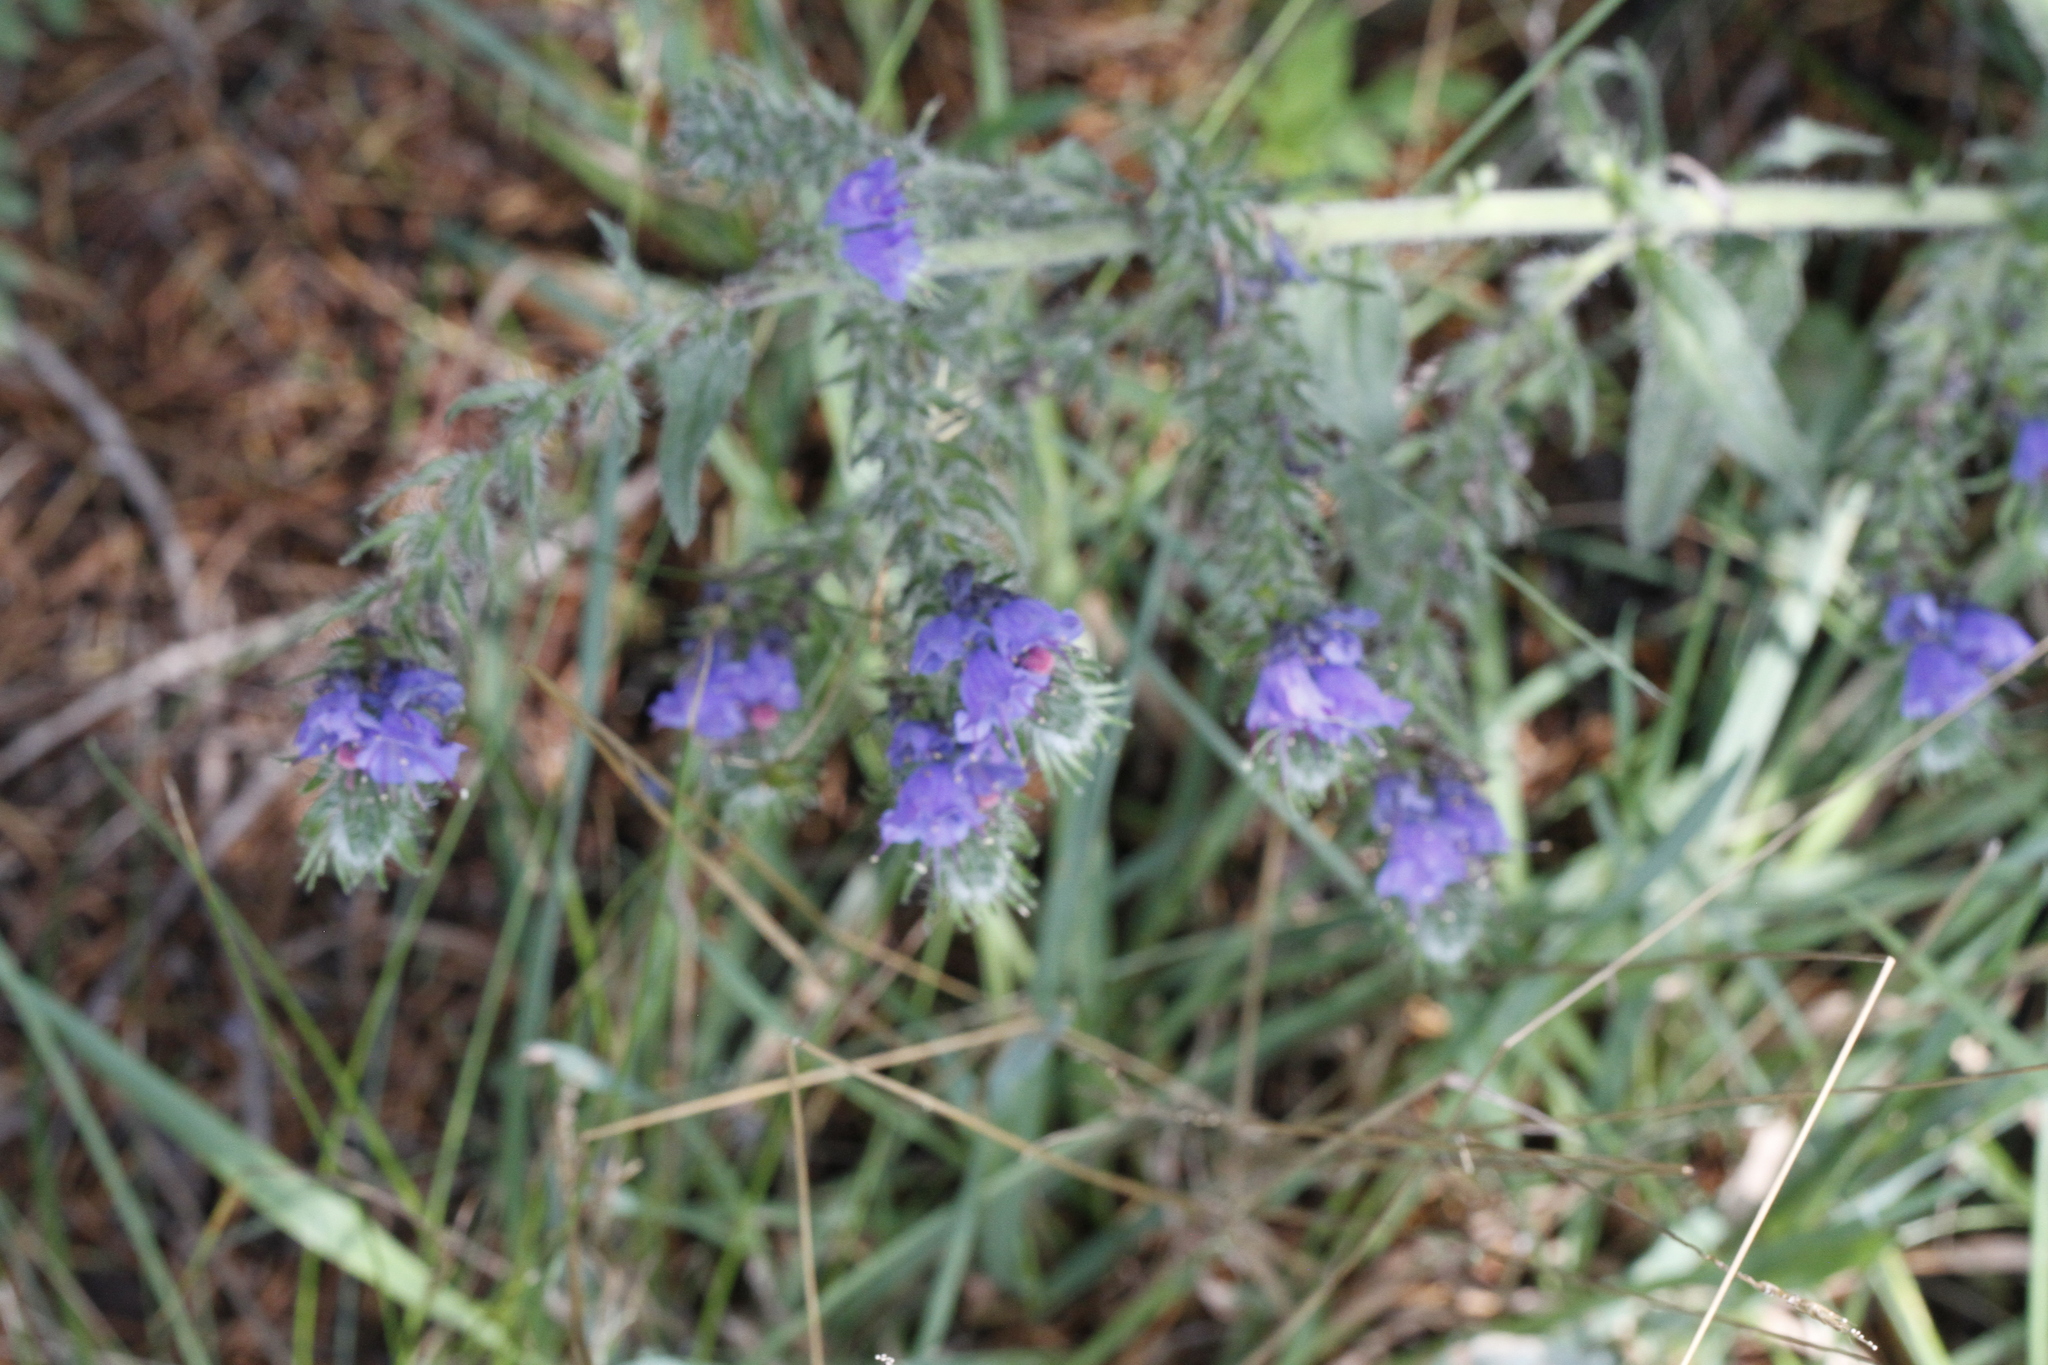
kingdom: Plantae
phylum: Tracheophyta
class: Magnoliopsida
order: Boraginales
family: Boraginaceae
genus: Echium
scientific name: Echium vulgare
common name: Common viper's bugloss
